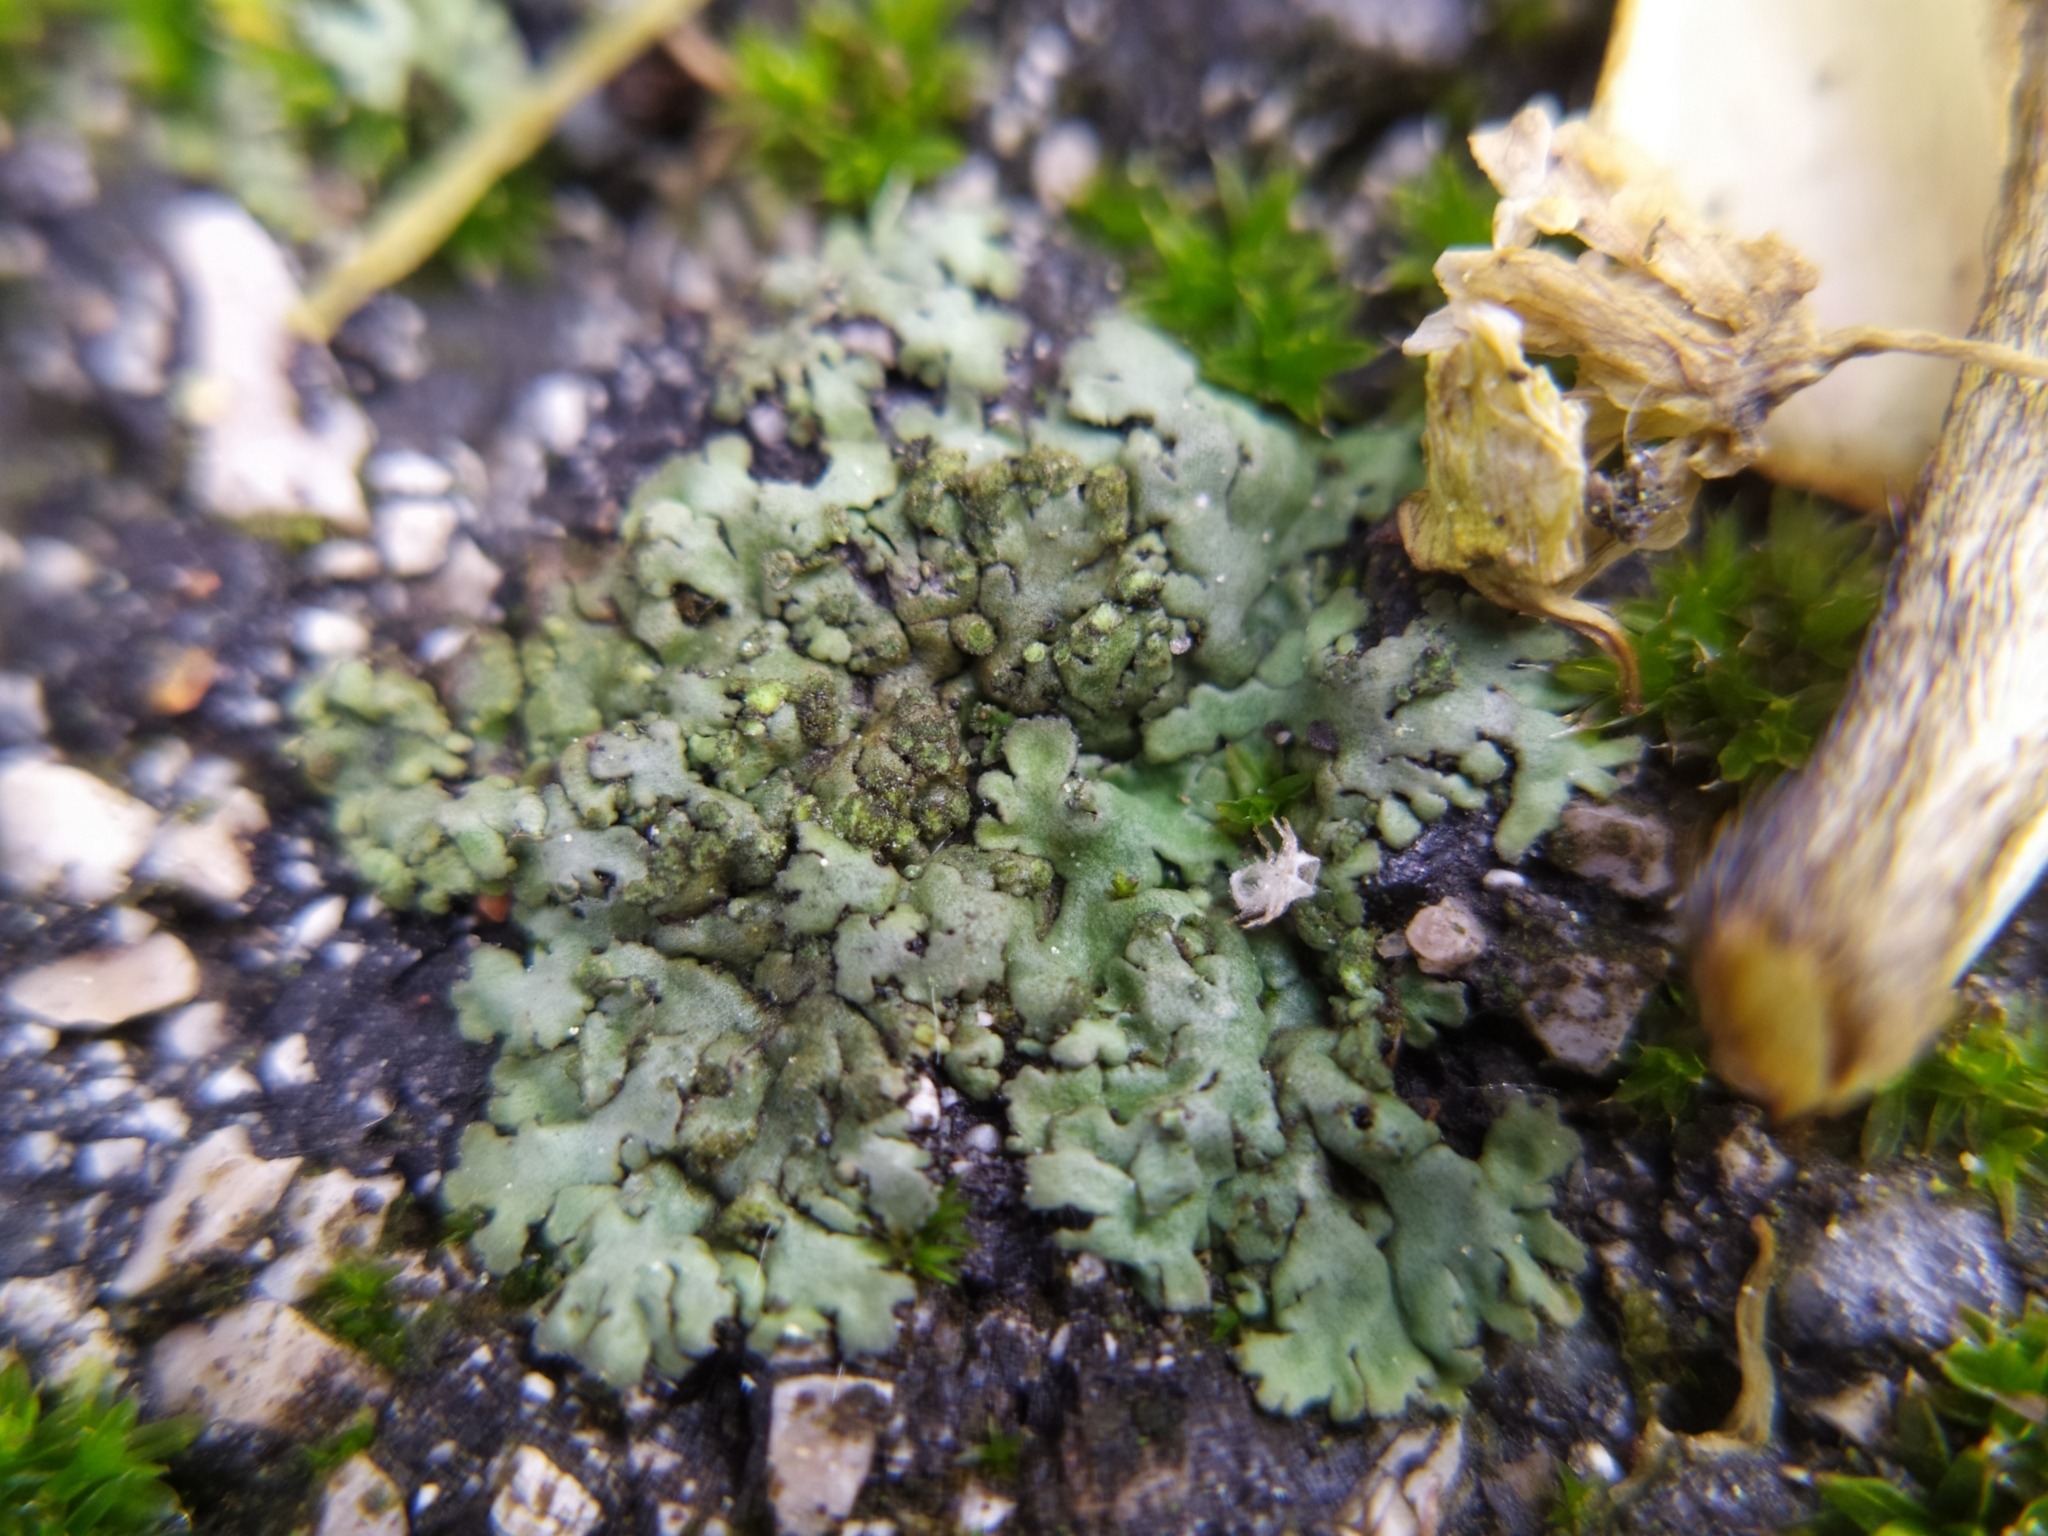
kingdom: Fungi
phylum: Ascomycota
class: Lecanoromycetes
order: Caliciales
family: Physciaceae
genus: Phaeophyscia
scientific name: Phaeophyscia orbicularis
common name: Mealy shadow lichen
